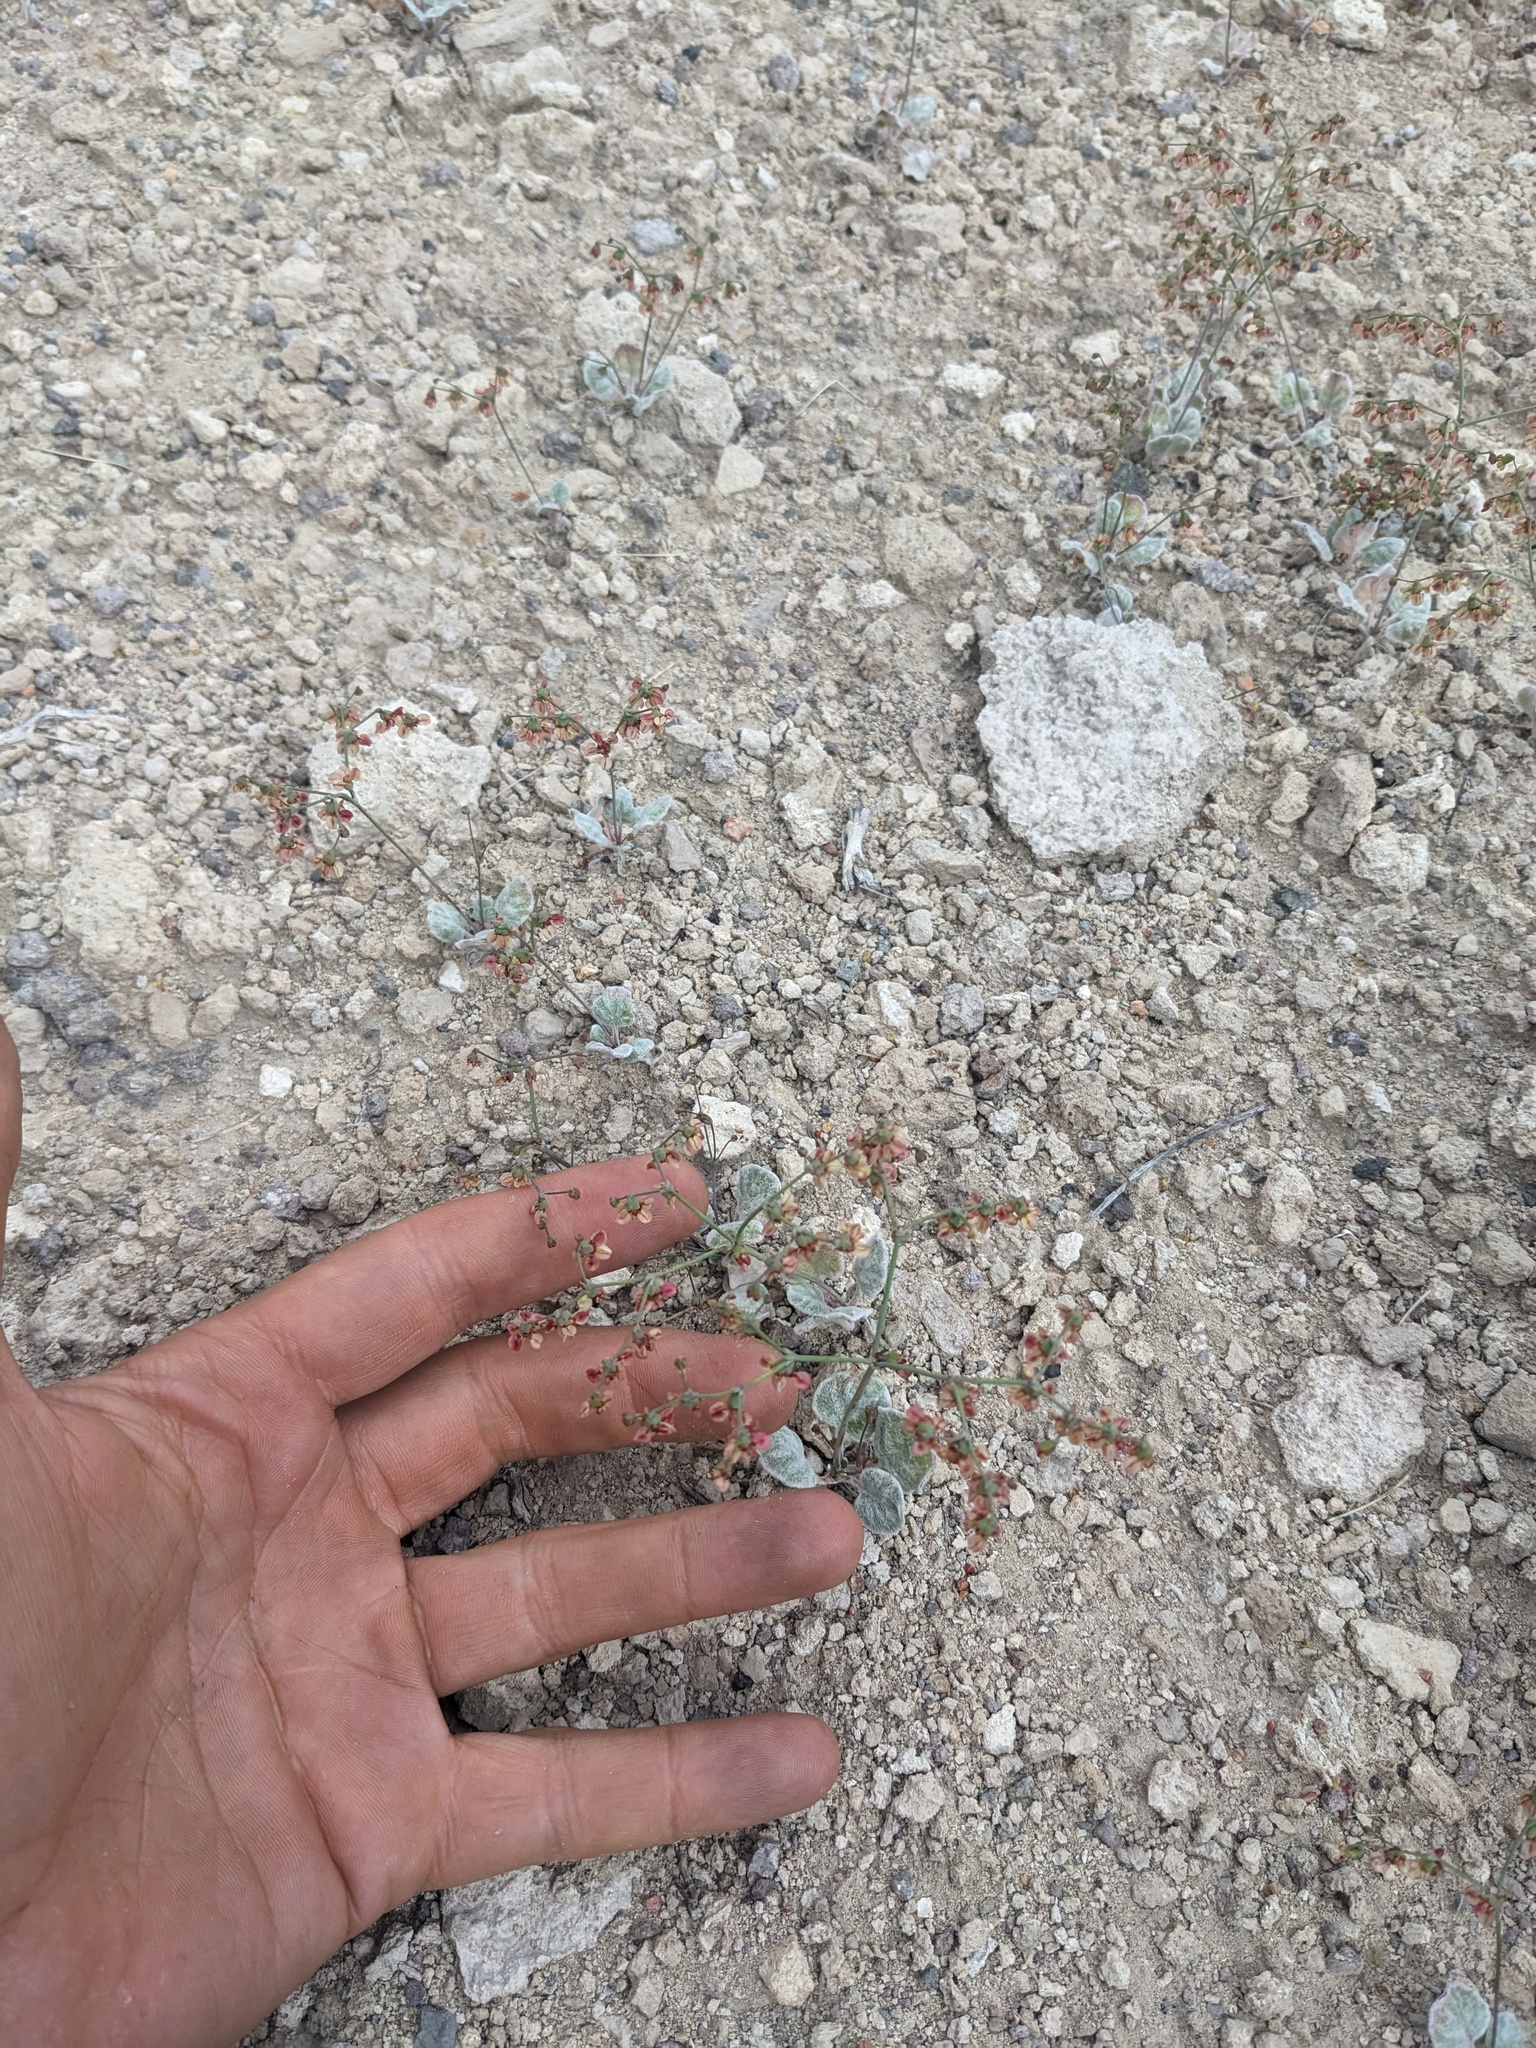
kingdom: Plantae
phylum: Tracheophyta
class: Magnoliopsida
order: Caryophyllales
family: Polygonaceae
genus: Eriogonum
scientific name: Eriogonum hookeri
